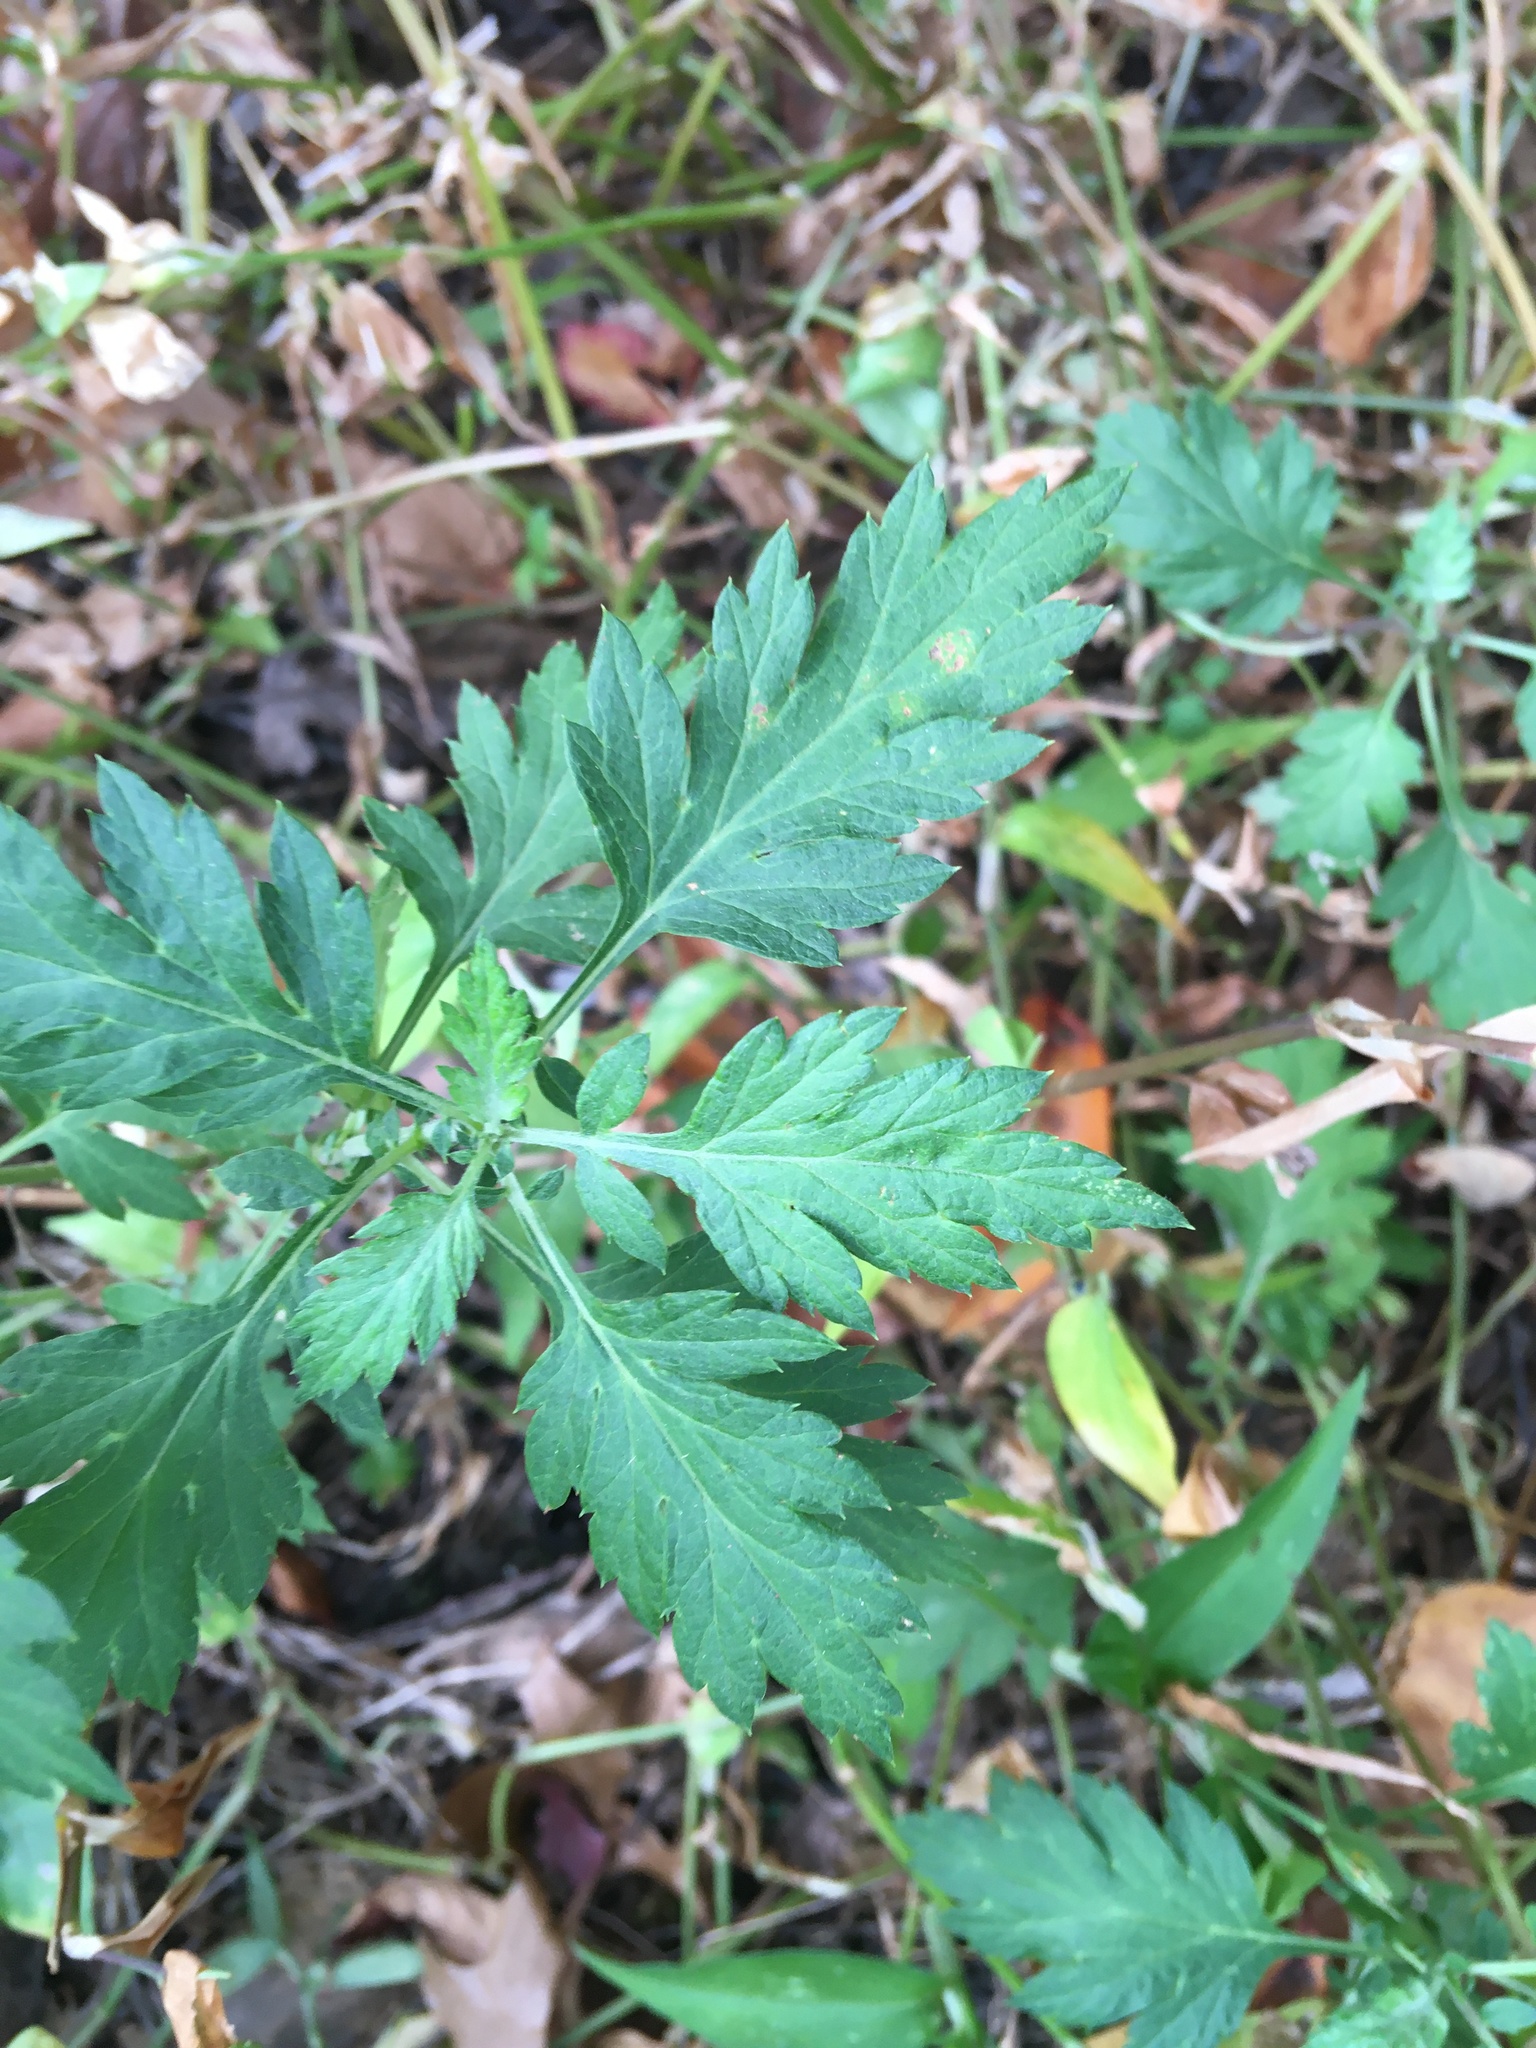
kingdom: Plantae
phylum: Tracheophyta
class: Magnoliopsida
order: Asterales
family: Asteraceae
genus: Artemisia
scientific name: Artemisia vulgaris
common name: Mugwort
